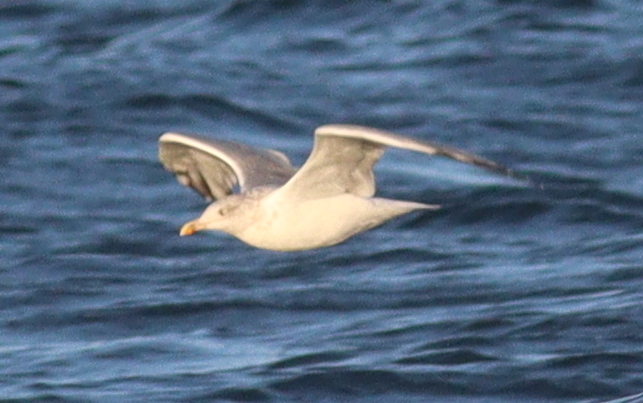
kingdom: Animalia
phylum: Chordata
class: Aves
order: Charadriiformes
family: Laridae
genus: Larus
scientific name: Larus argentatus
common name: Herring gull
